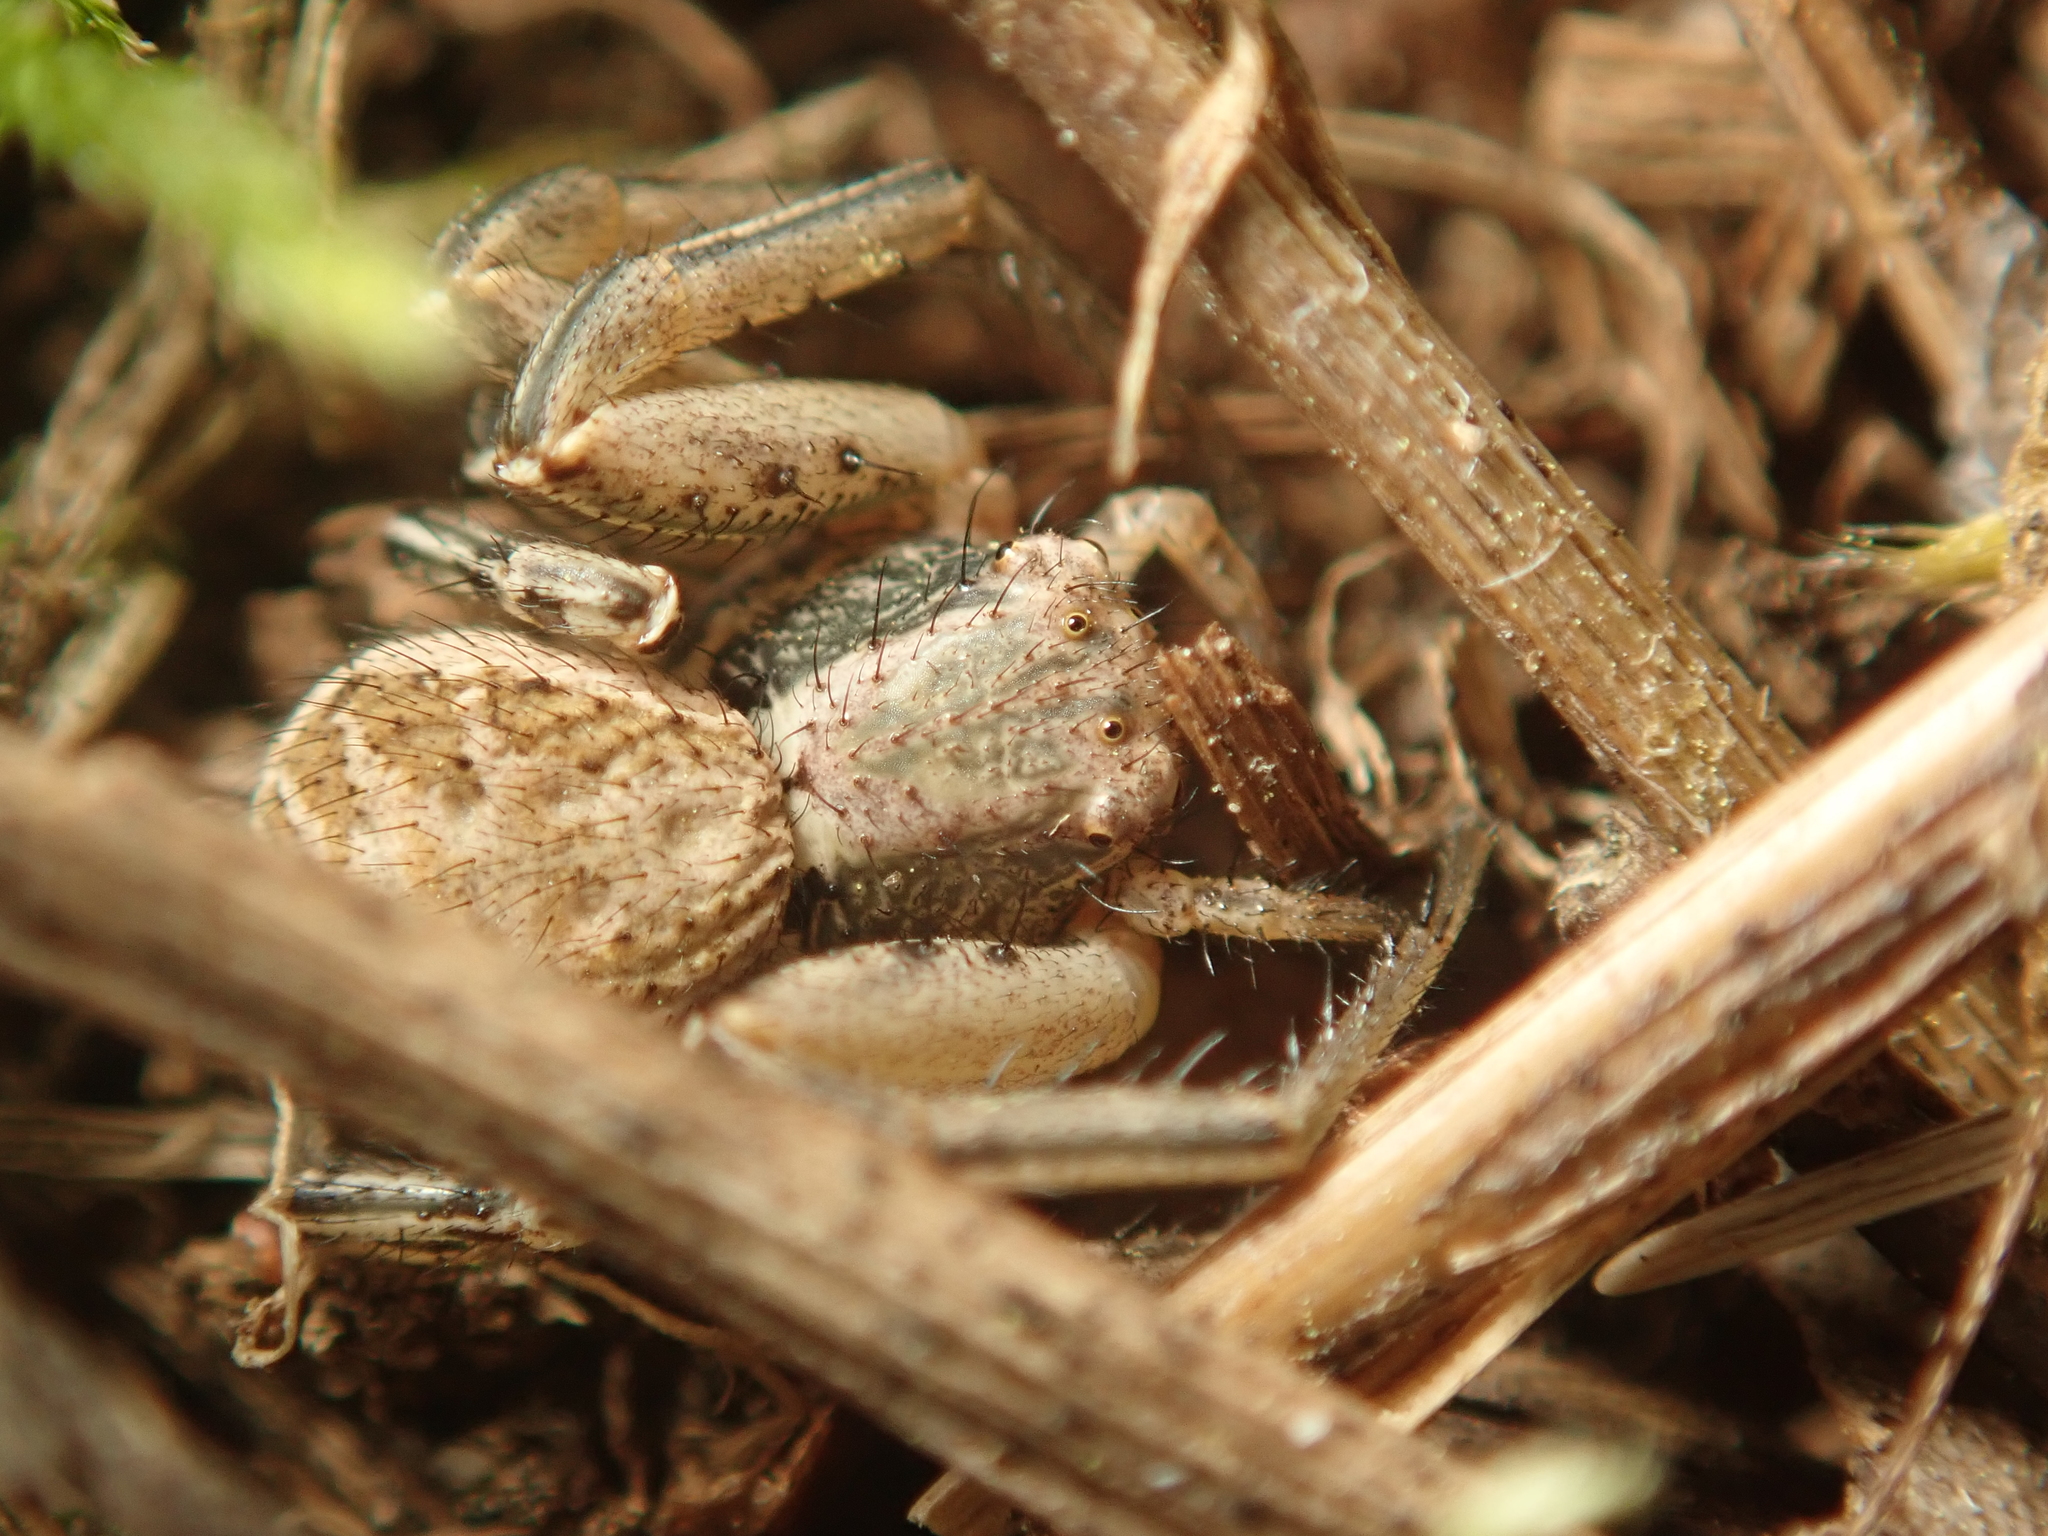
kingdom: Animalia
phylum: Arthropoda
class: Arachnida
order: Araneae
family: Thomisidae
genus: Xysticus
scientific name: Xysticus
